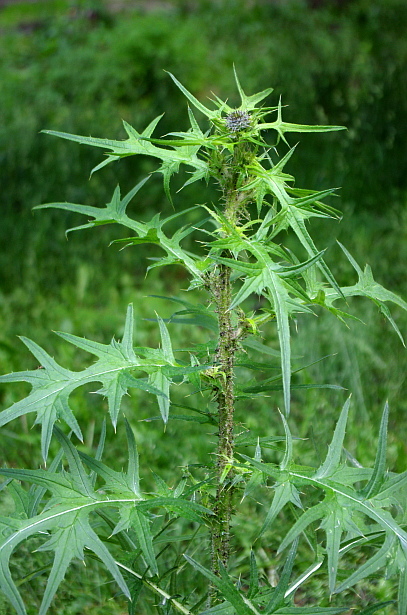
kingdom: Plantae
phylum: Tracheophyta
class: Magnoliopsida
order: Asterales
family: Asteraceae
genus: Cirsium
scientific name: Cirsium vulgare
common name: Bull thistle
